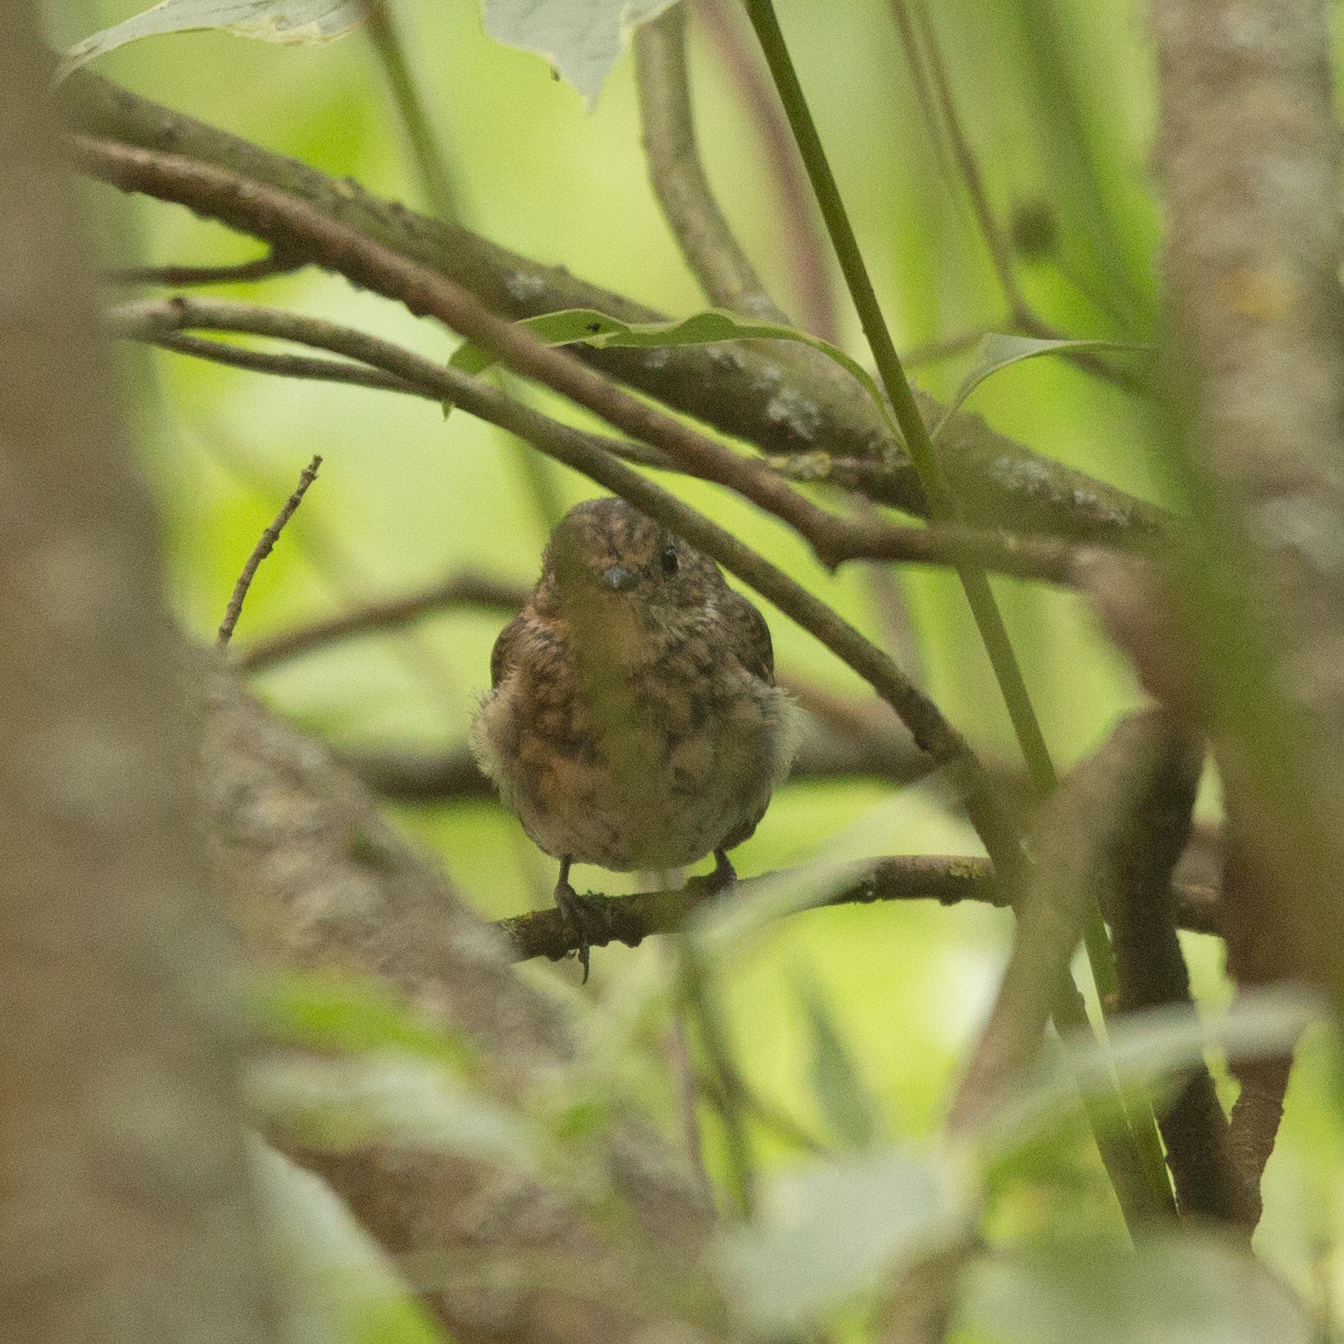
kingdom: Animalia
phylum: Chordata
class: Aves
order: Passeriformes
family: Muscicapidae
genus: Erithacus
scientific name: Erithacus rubecula
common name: European robin
